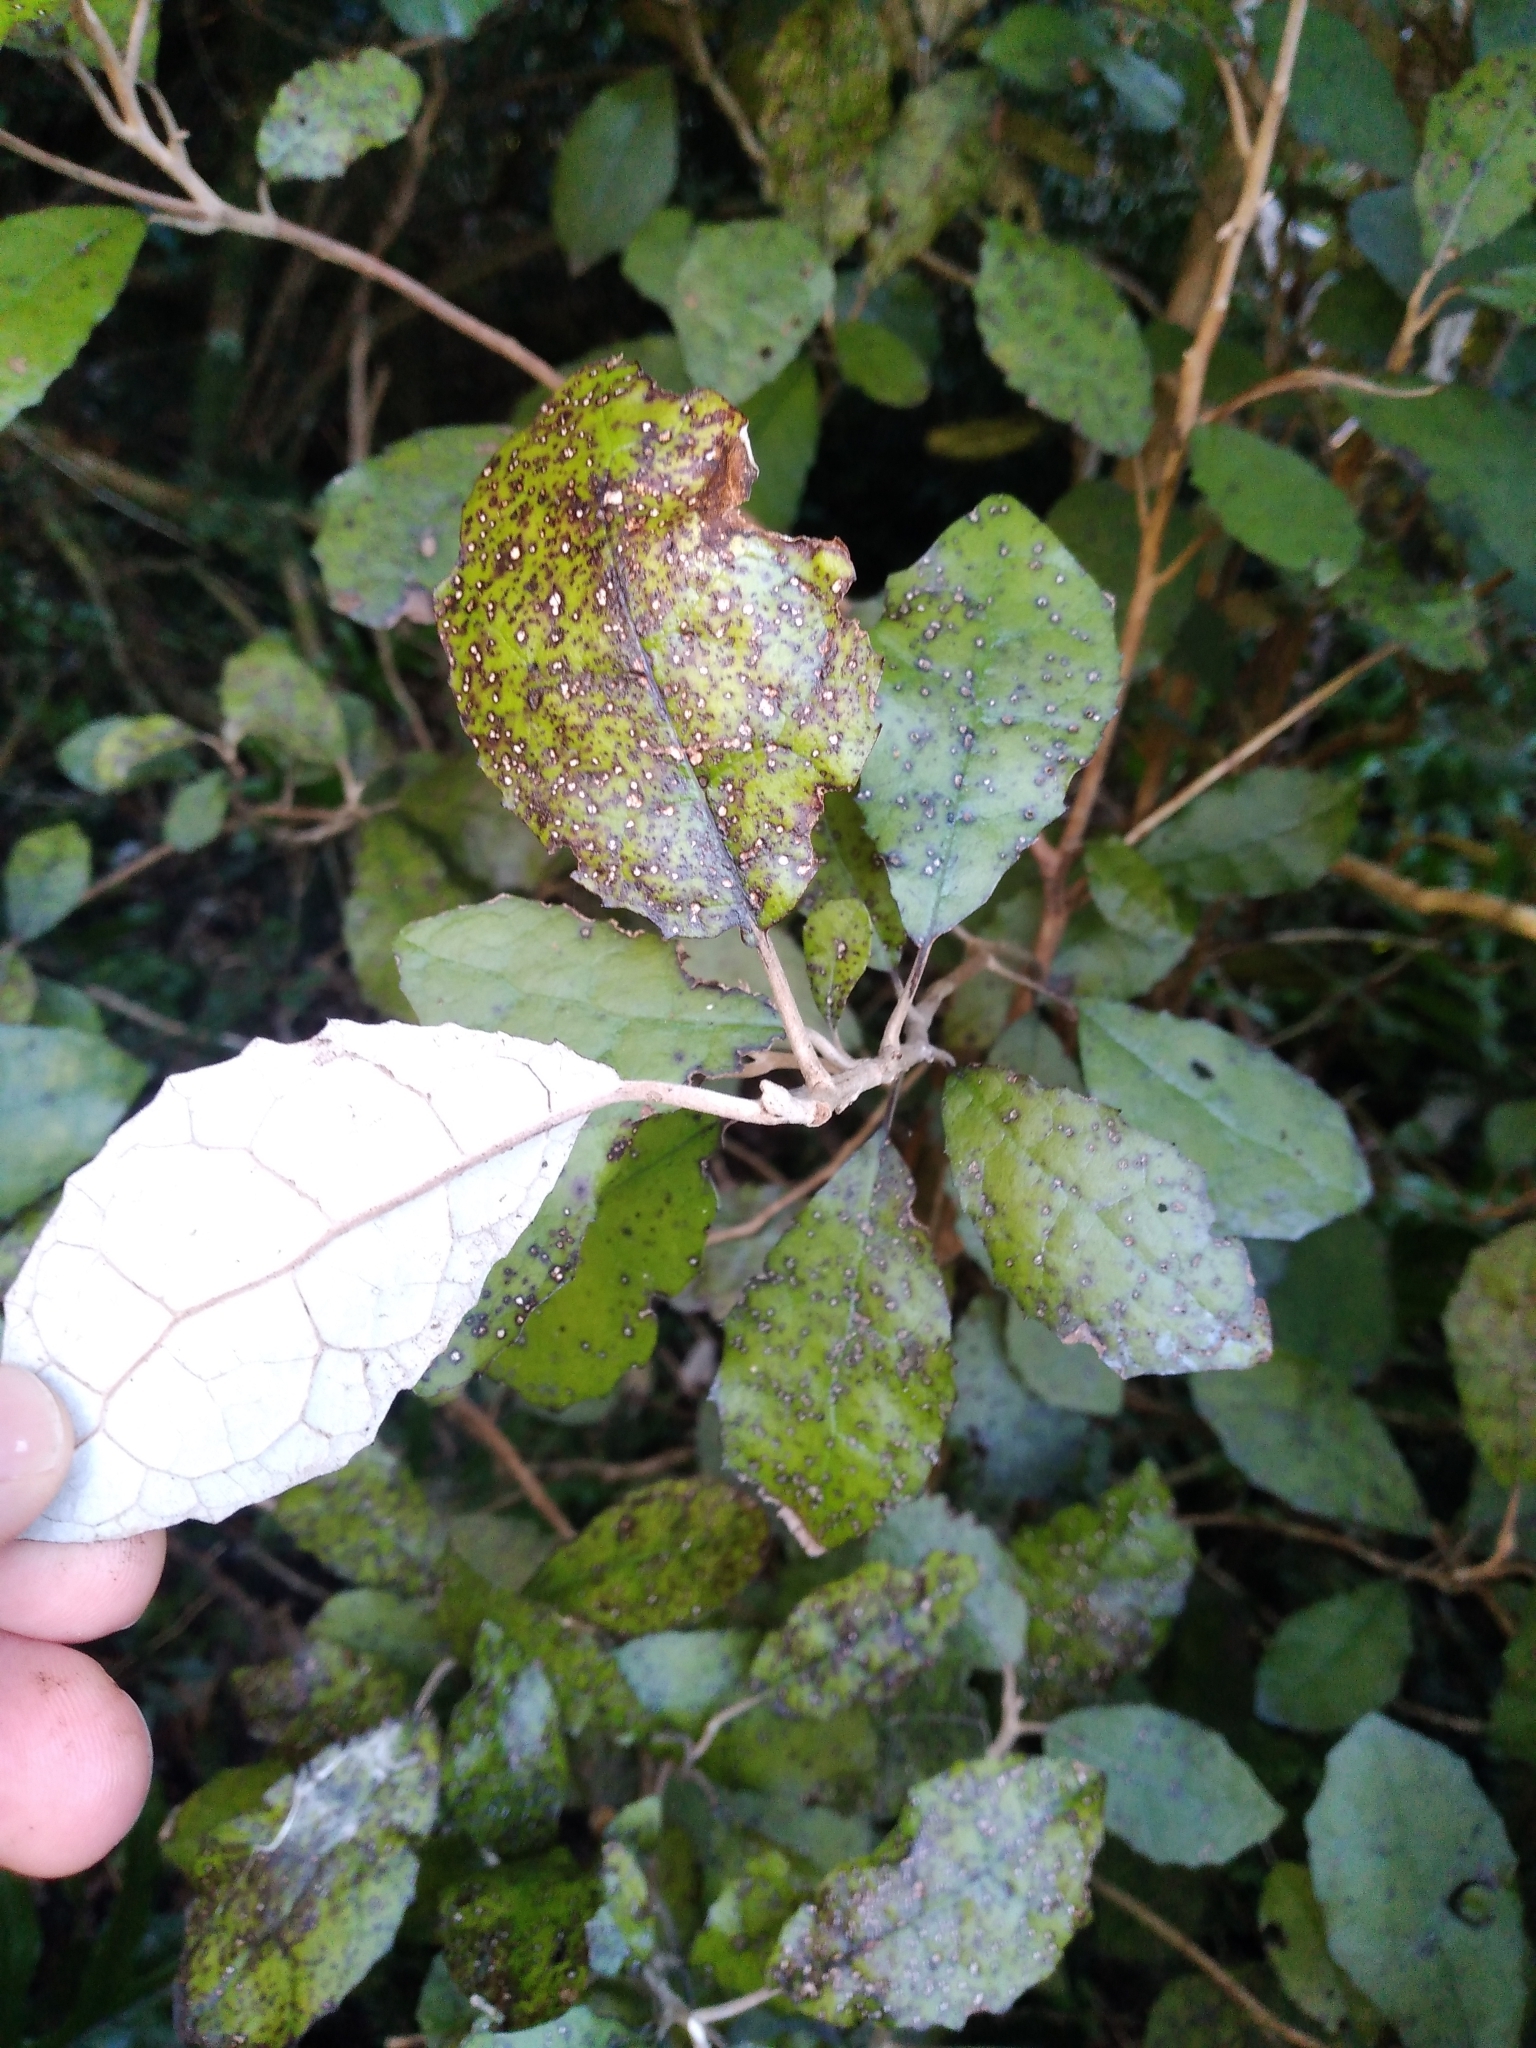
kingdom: Plantae
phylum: Tracheophyta
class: Magnoliopsida
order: Asterales
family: Asteraceae
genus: Olearia
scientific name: Olearia rani
